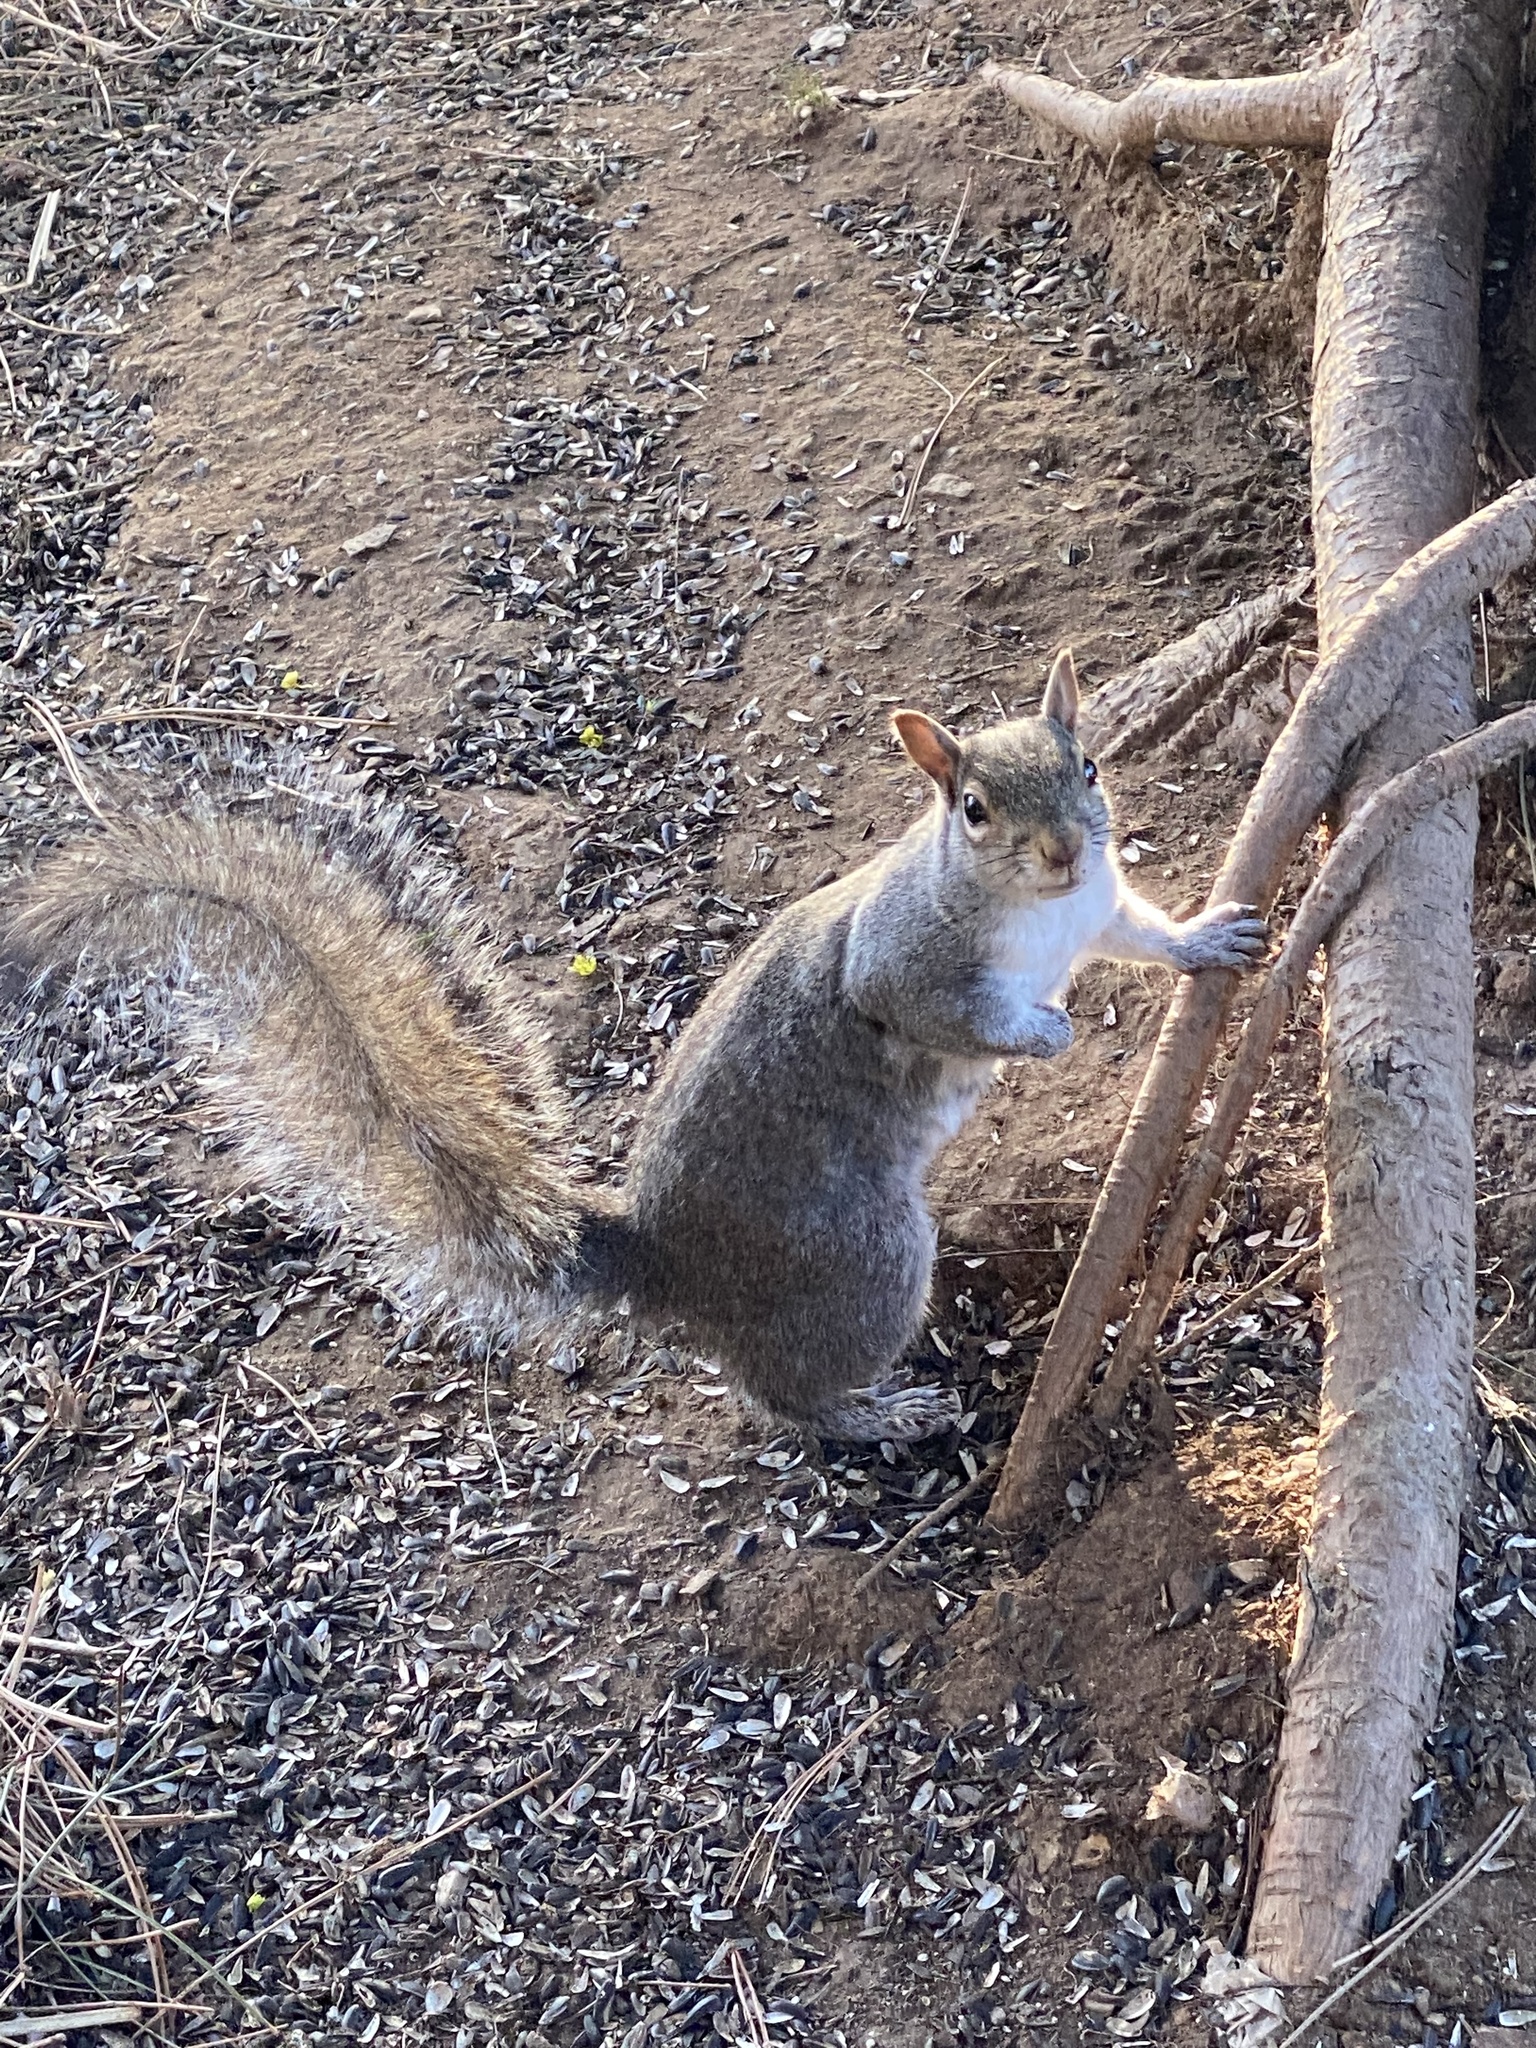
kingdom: Animalia
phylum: Chordata
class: Mammalia
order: Rodentia
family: Sciuridae
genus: Sciurus
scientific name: Sciurus carolinensis
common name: Eastern gray squirrel
